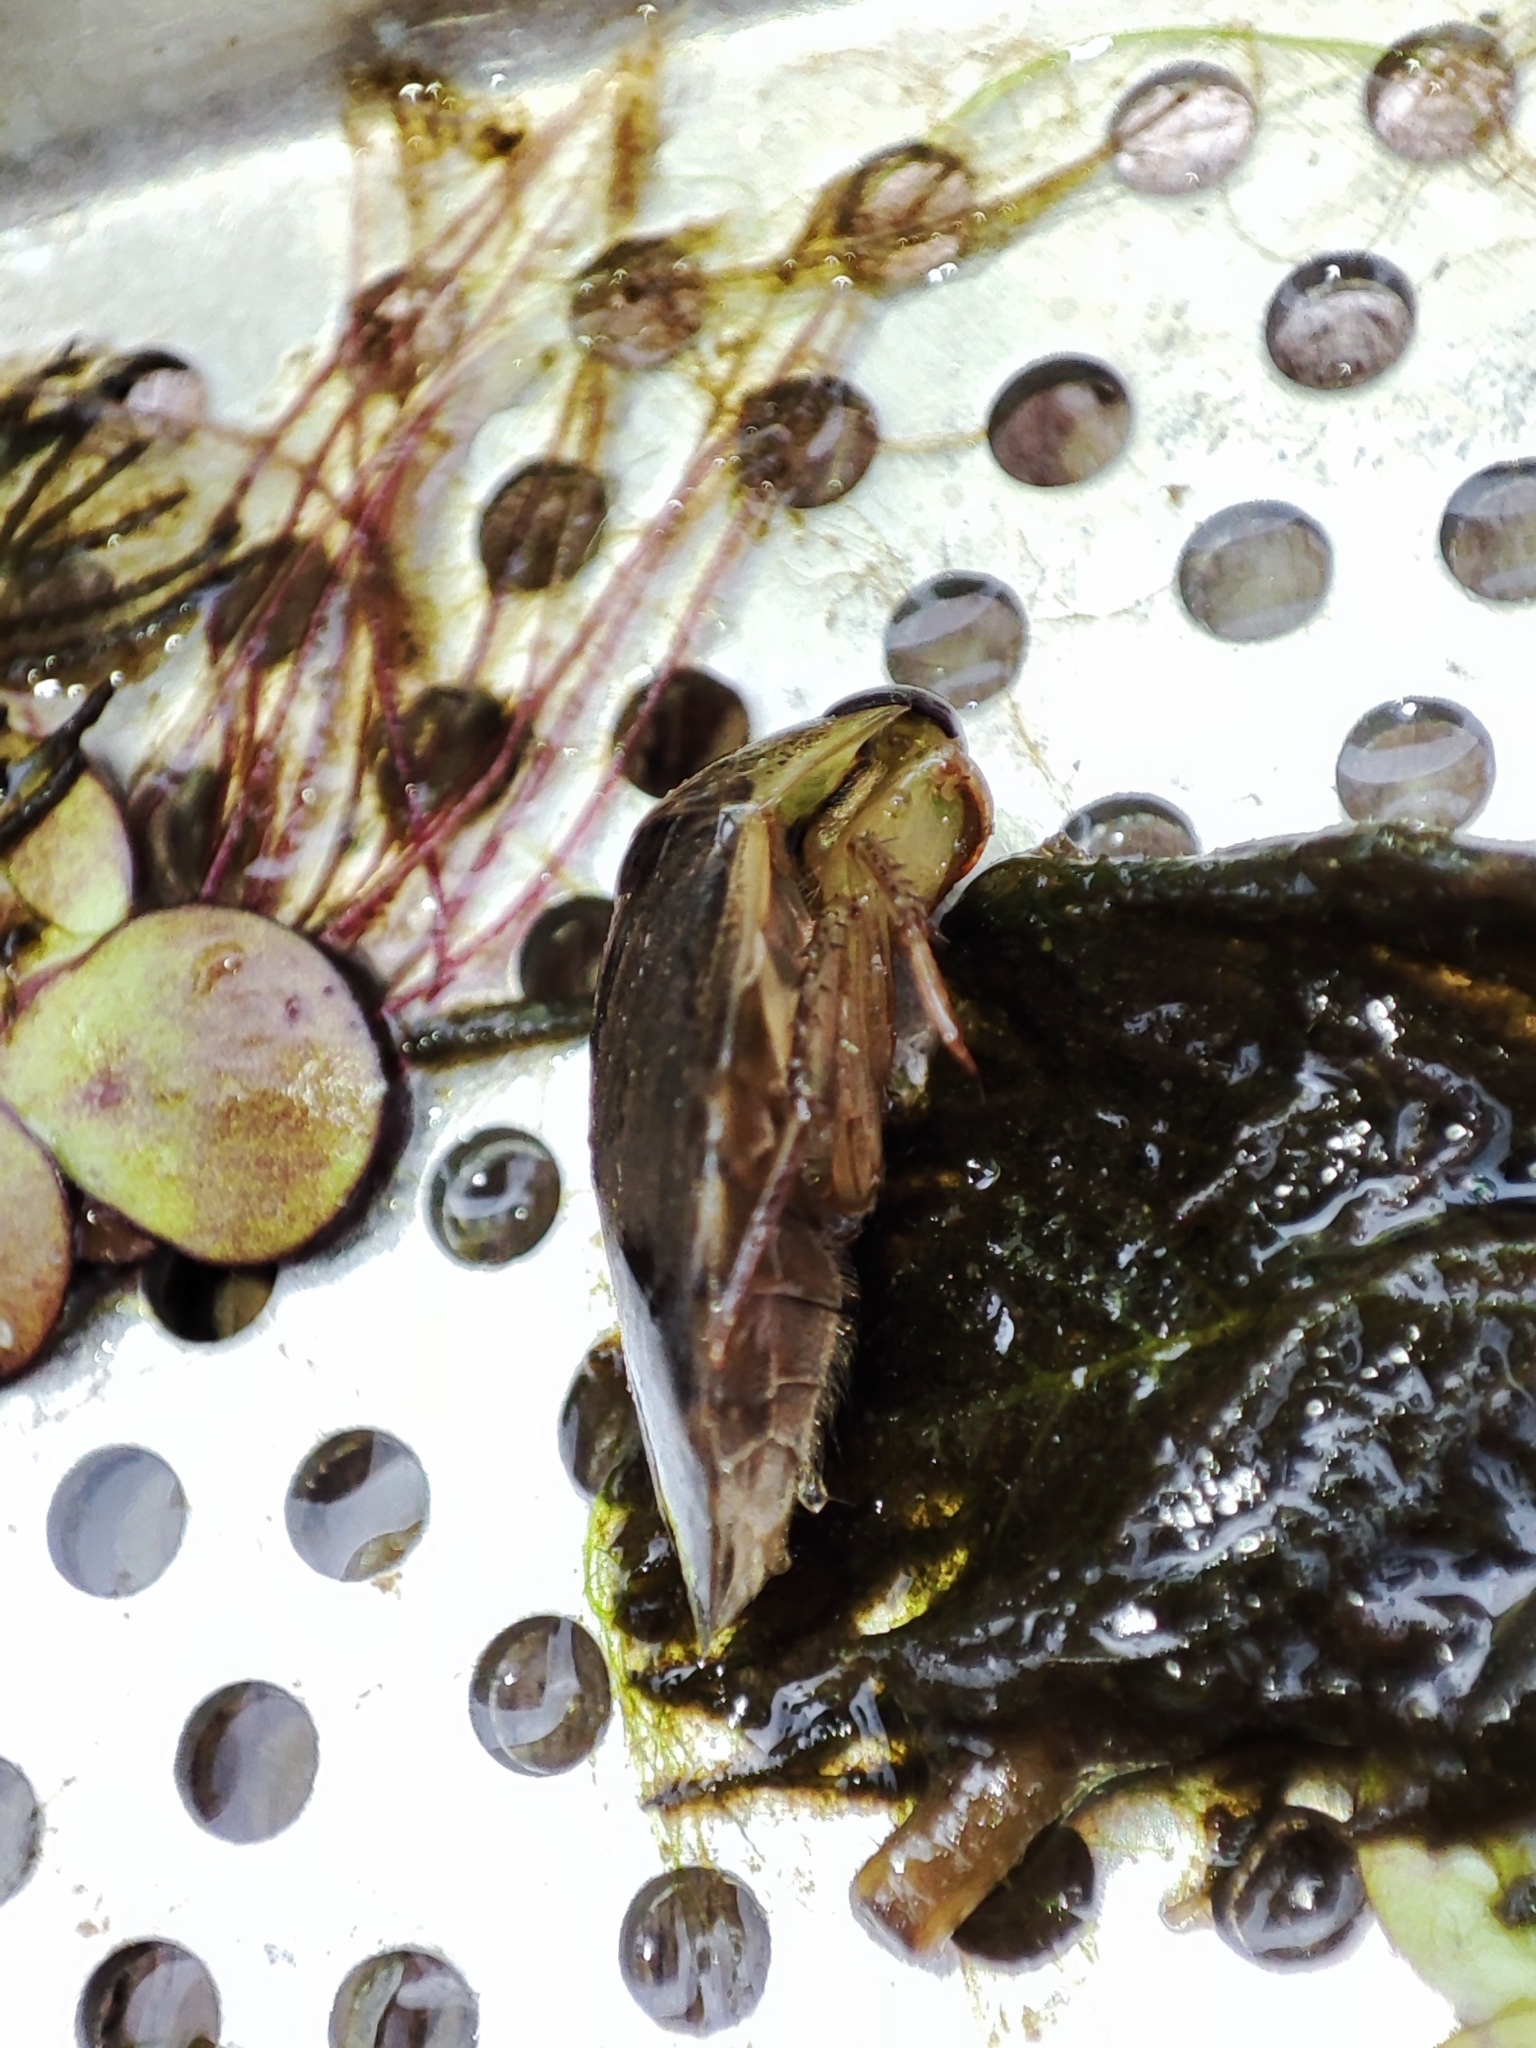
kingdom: Animalia
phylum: Arthropoda
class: Insecta
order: Hemiptera
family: Naucoridae
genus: Ilyocoris
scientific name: Ilyocoris cimicoides
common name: Saucer bugs
